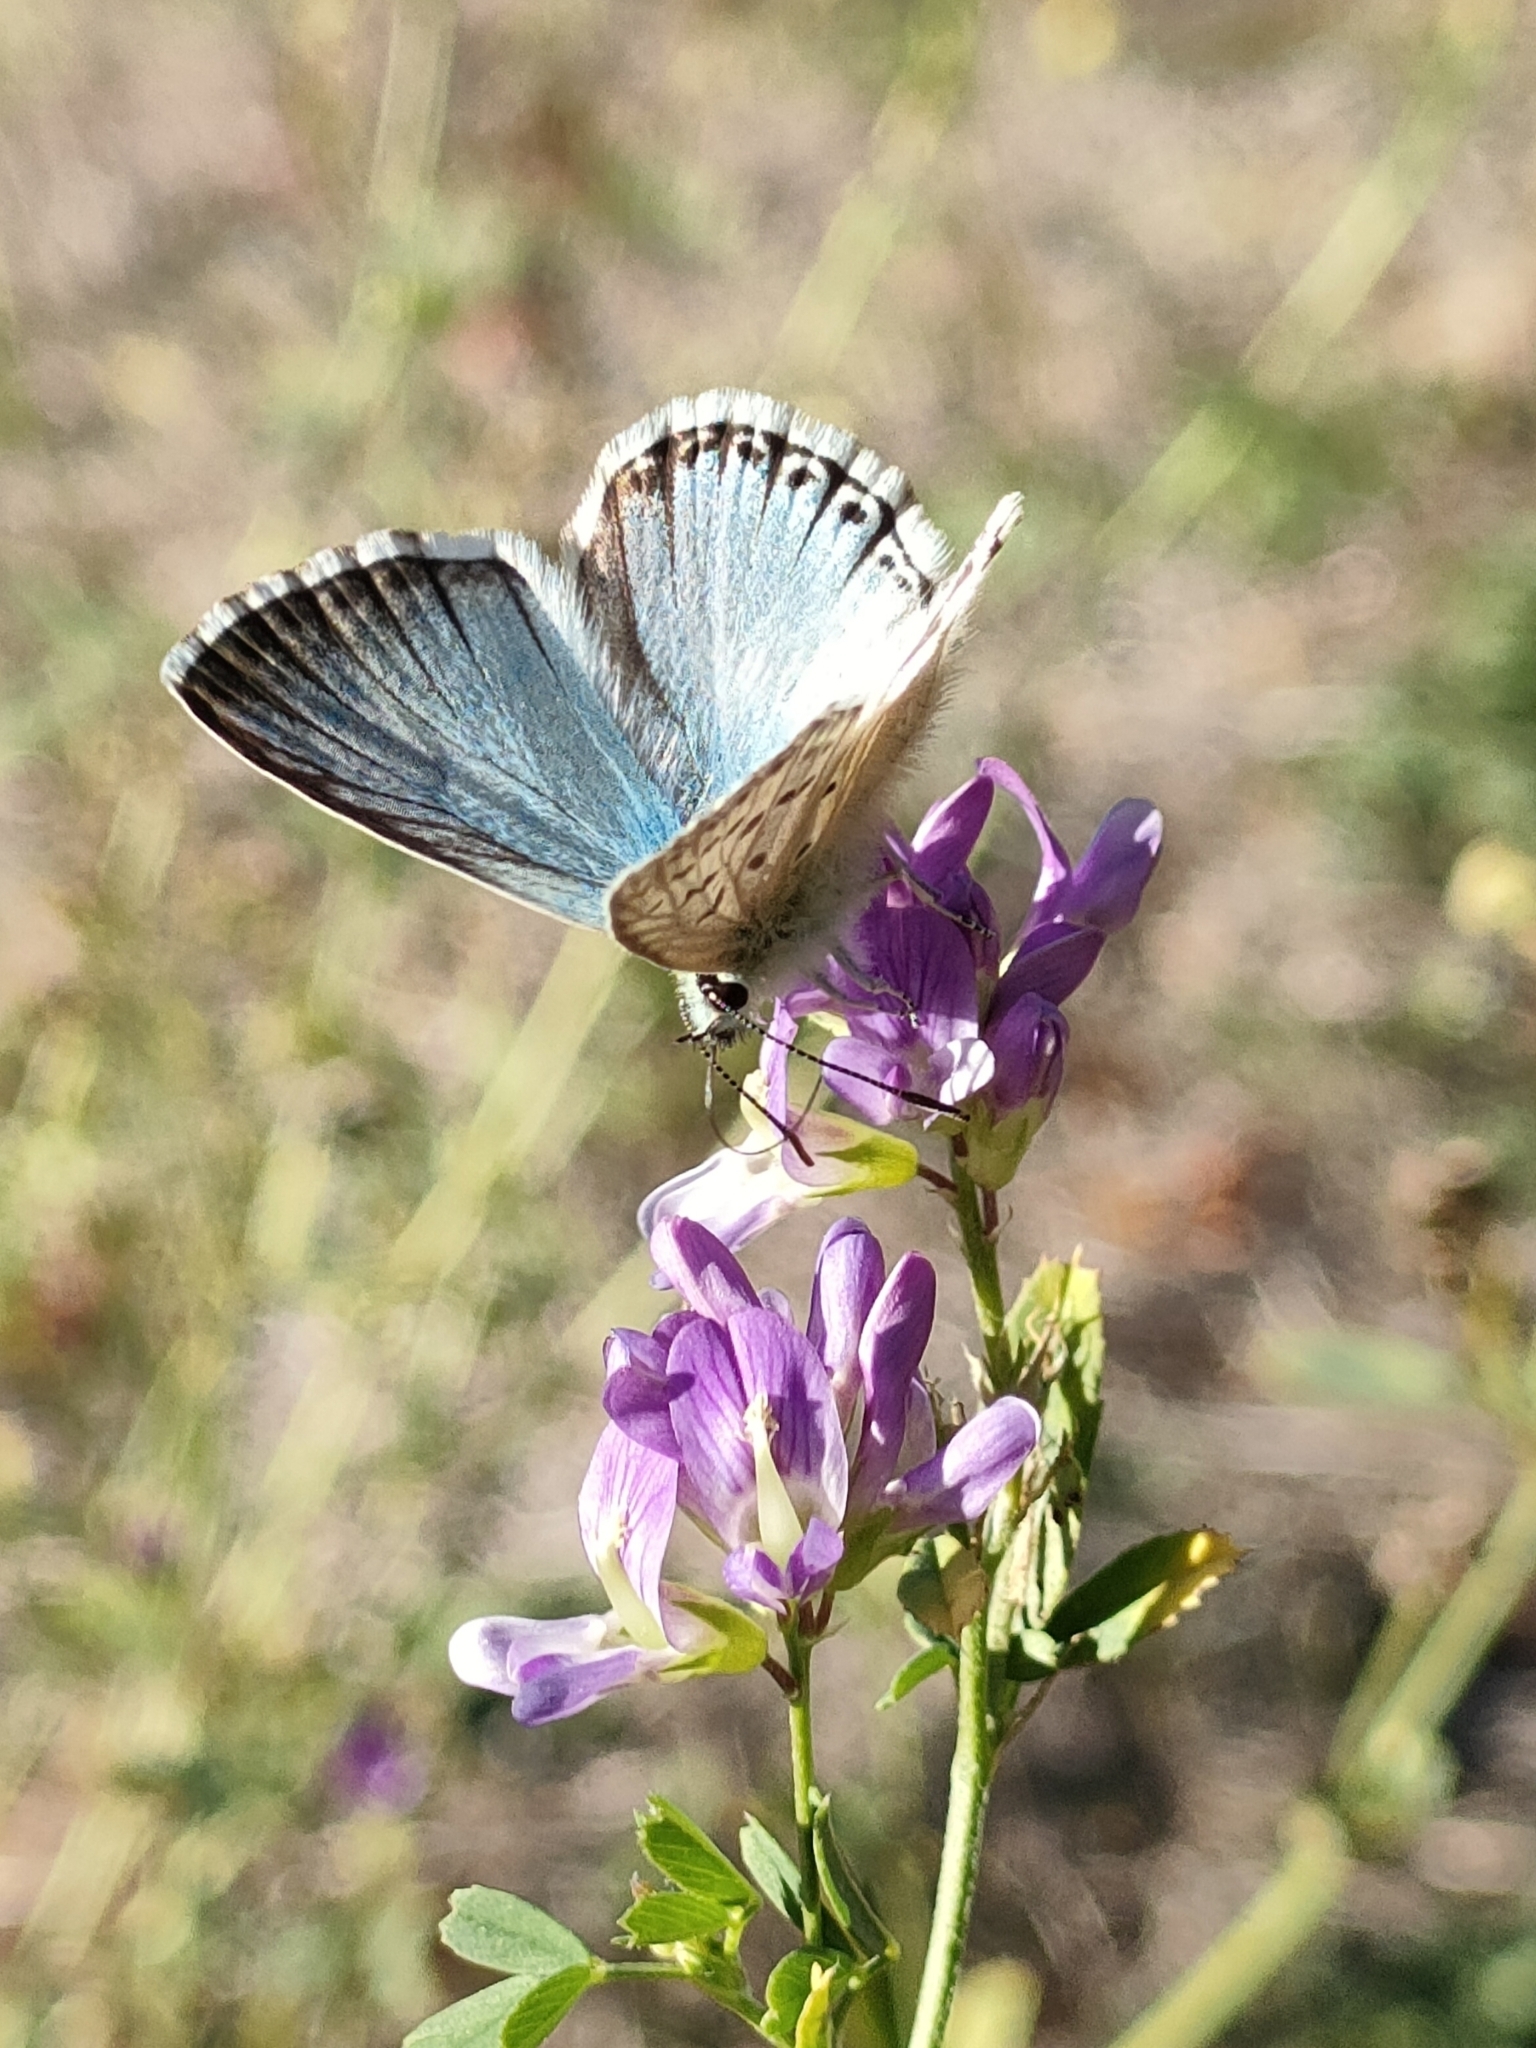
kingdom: Animalia
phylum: Arthropoda
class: Insecta
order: Lepidoptera
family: Lycaenidae
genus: Lysandra
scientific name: Lysandra coridon
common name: Chalkhill blue
